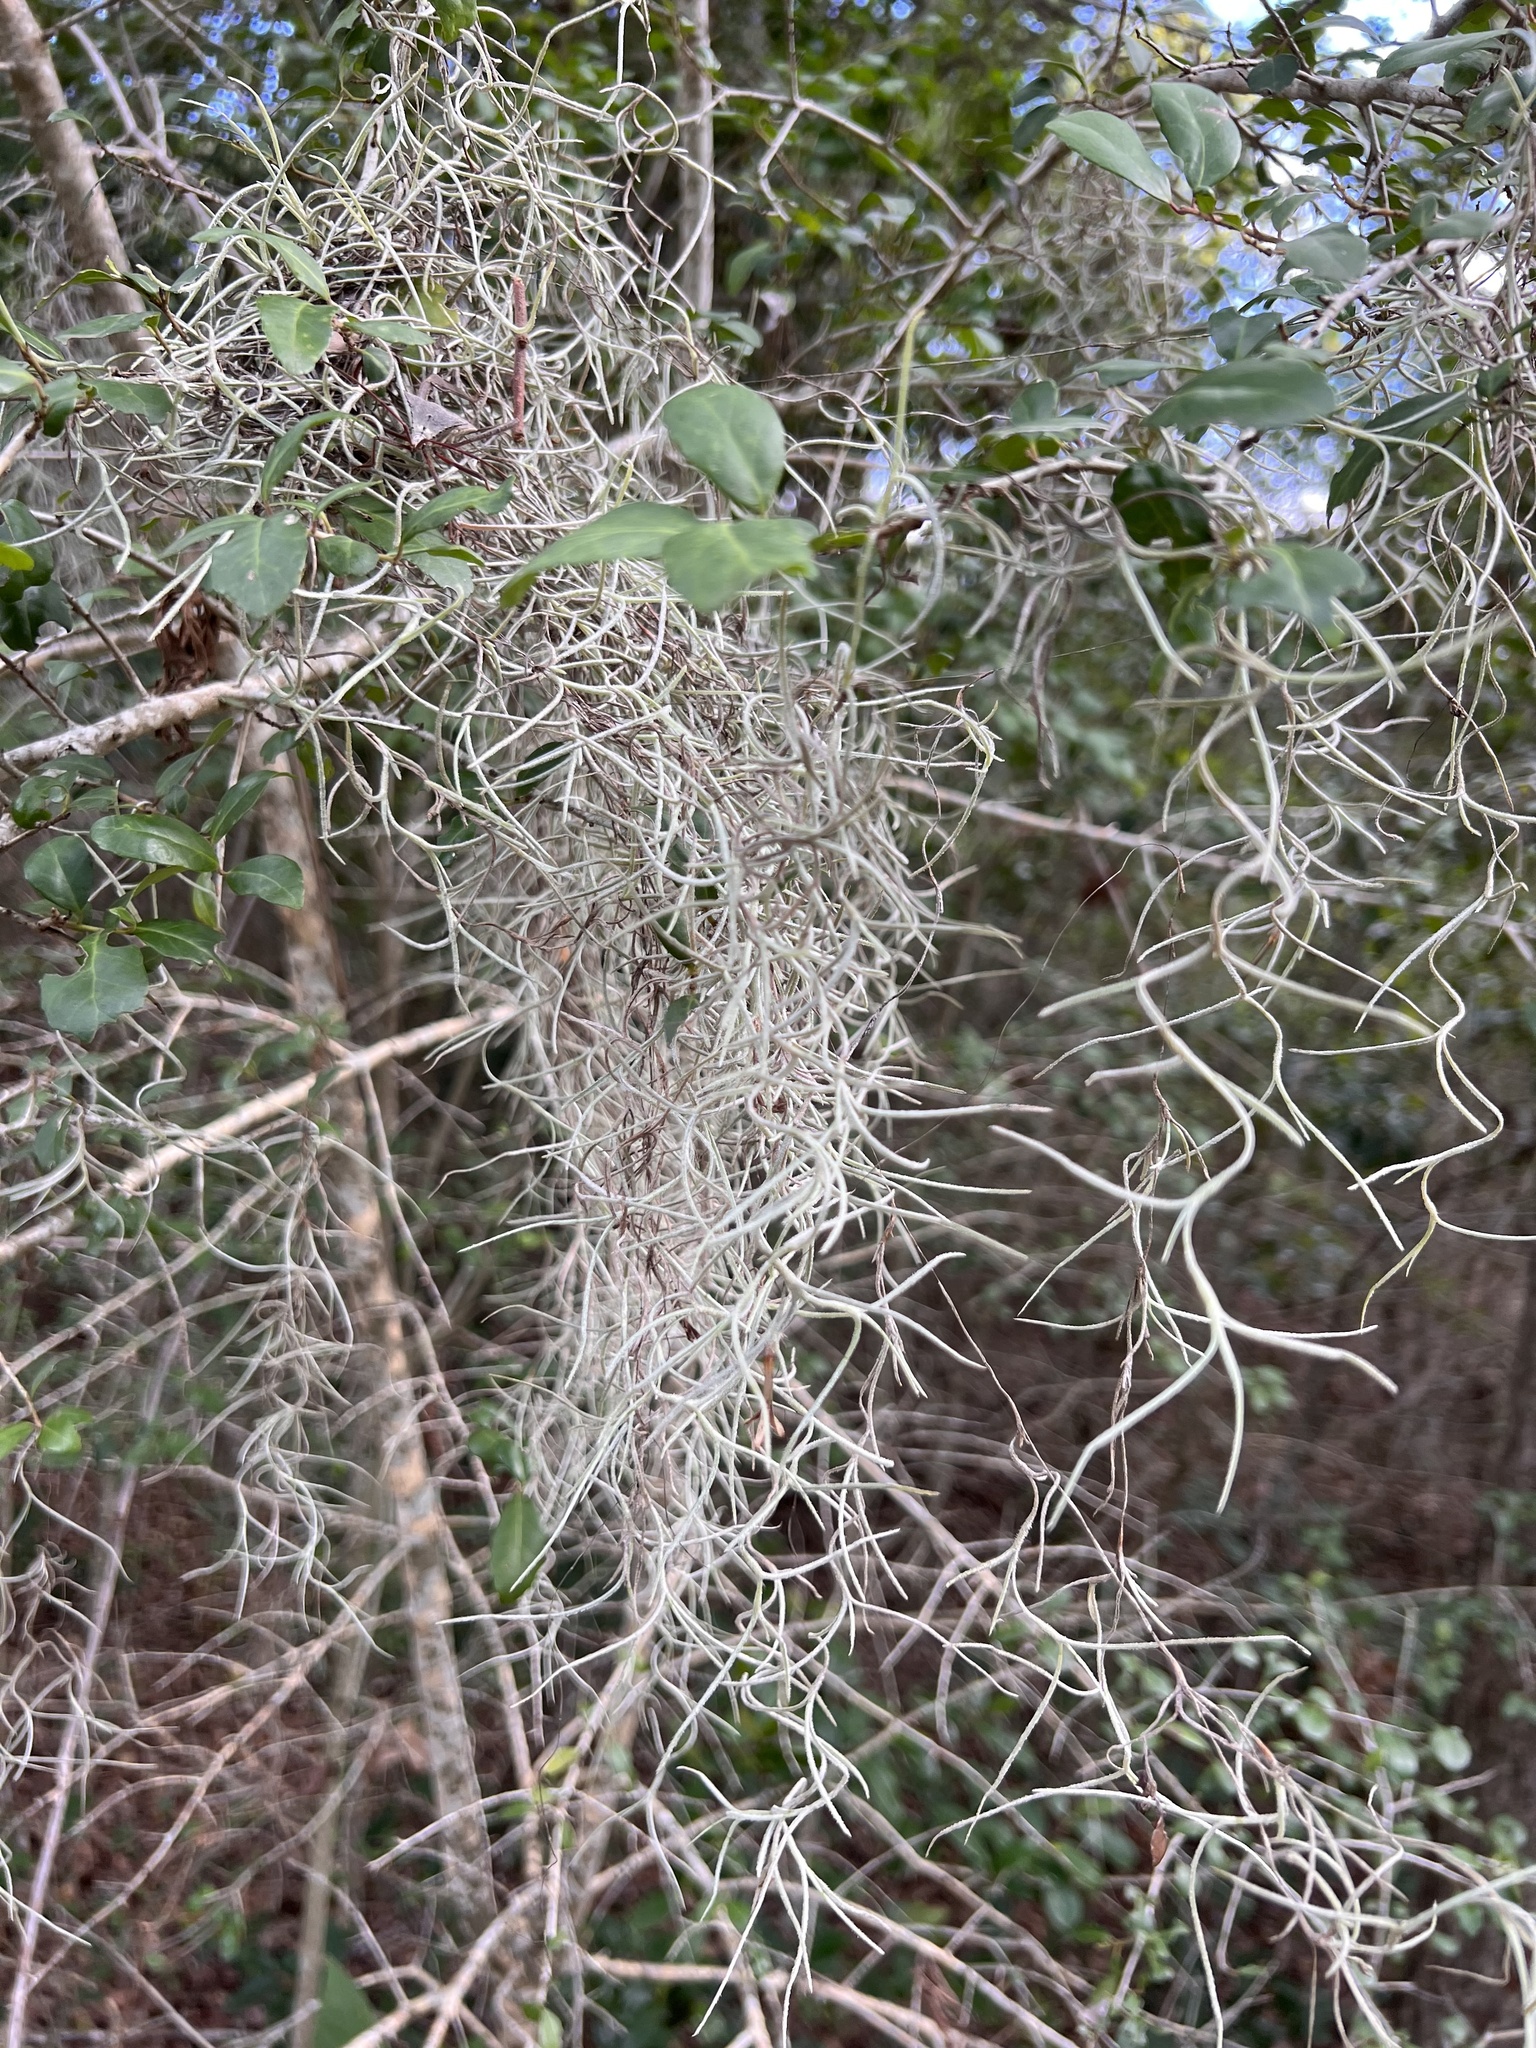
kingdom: Plantae
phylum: Tracheophyta
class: Liliopsida
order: Poales
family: Bromeliaceae
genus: Tillandsia
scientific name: Tillandsia usneoides
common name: Spanish moss
